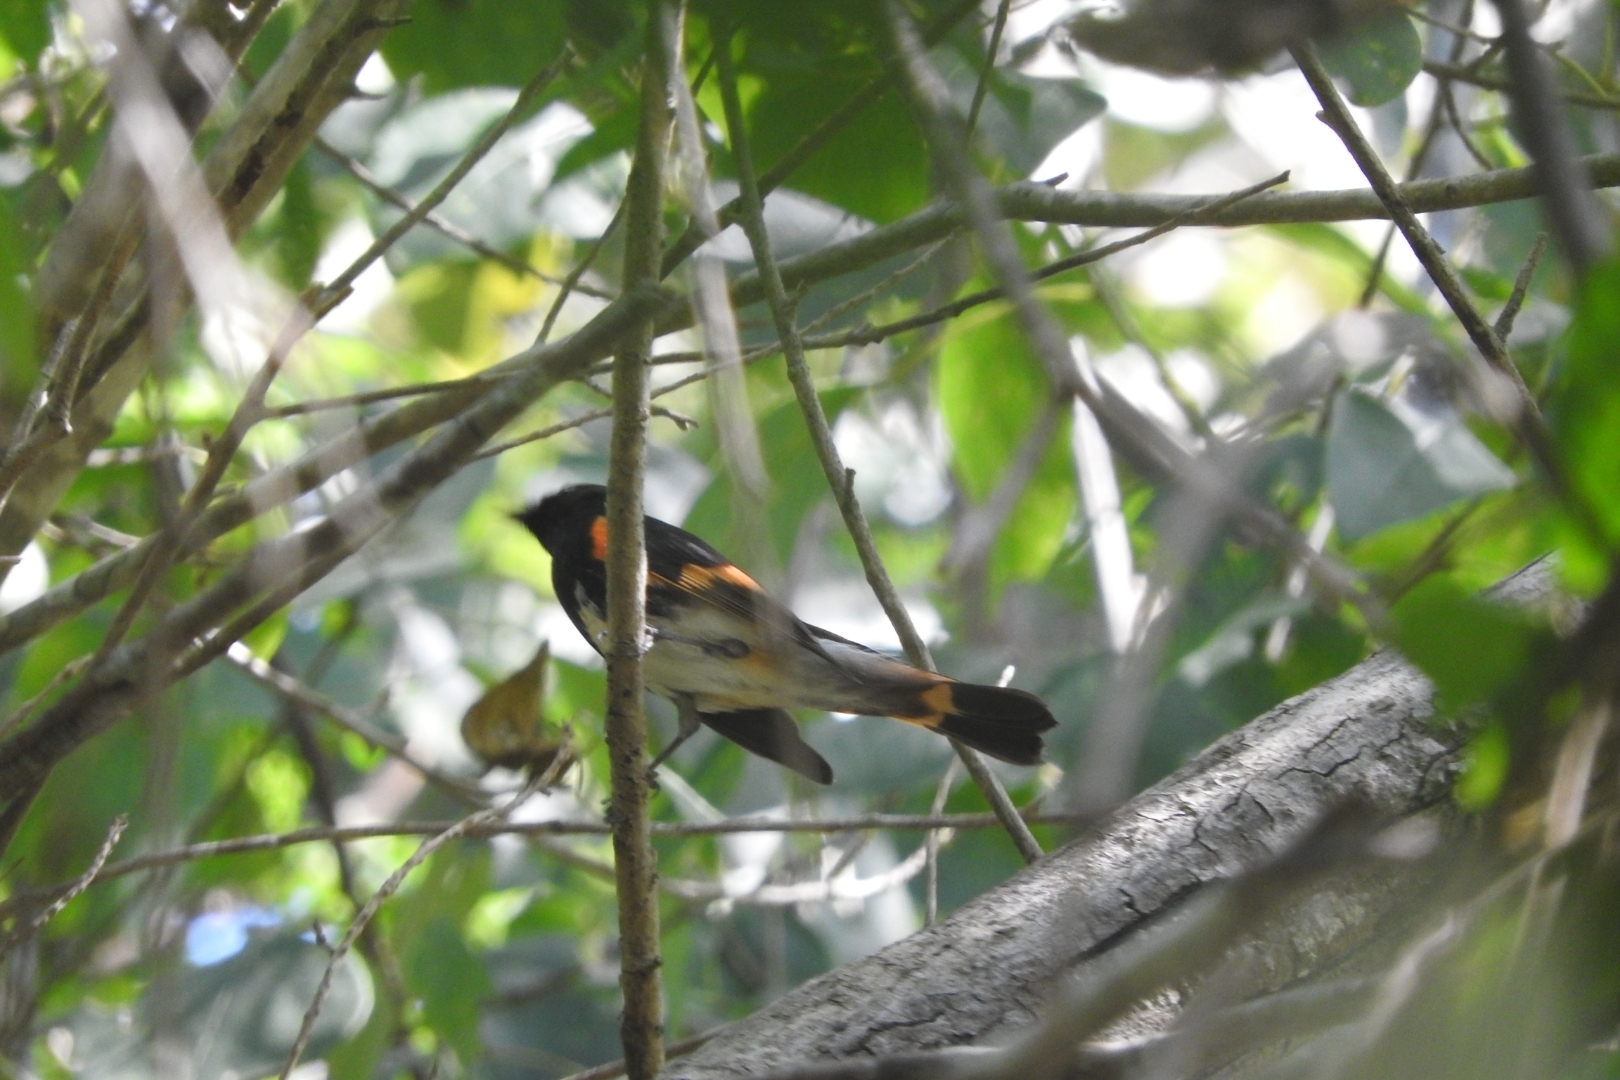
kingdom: Animalia
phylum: Chordata
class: Aves
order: Passeriformes
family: Parulidae
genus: Setophaga
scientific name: Setophaga ruticilla
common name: American redstart
